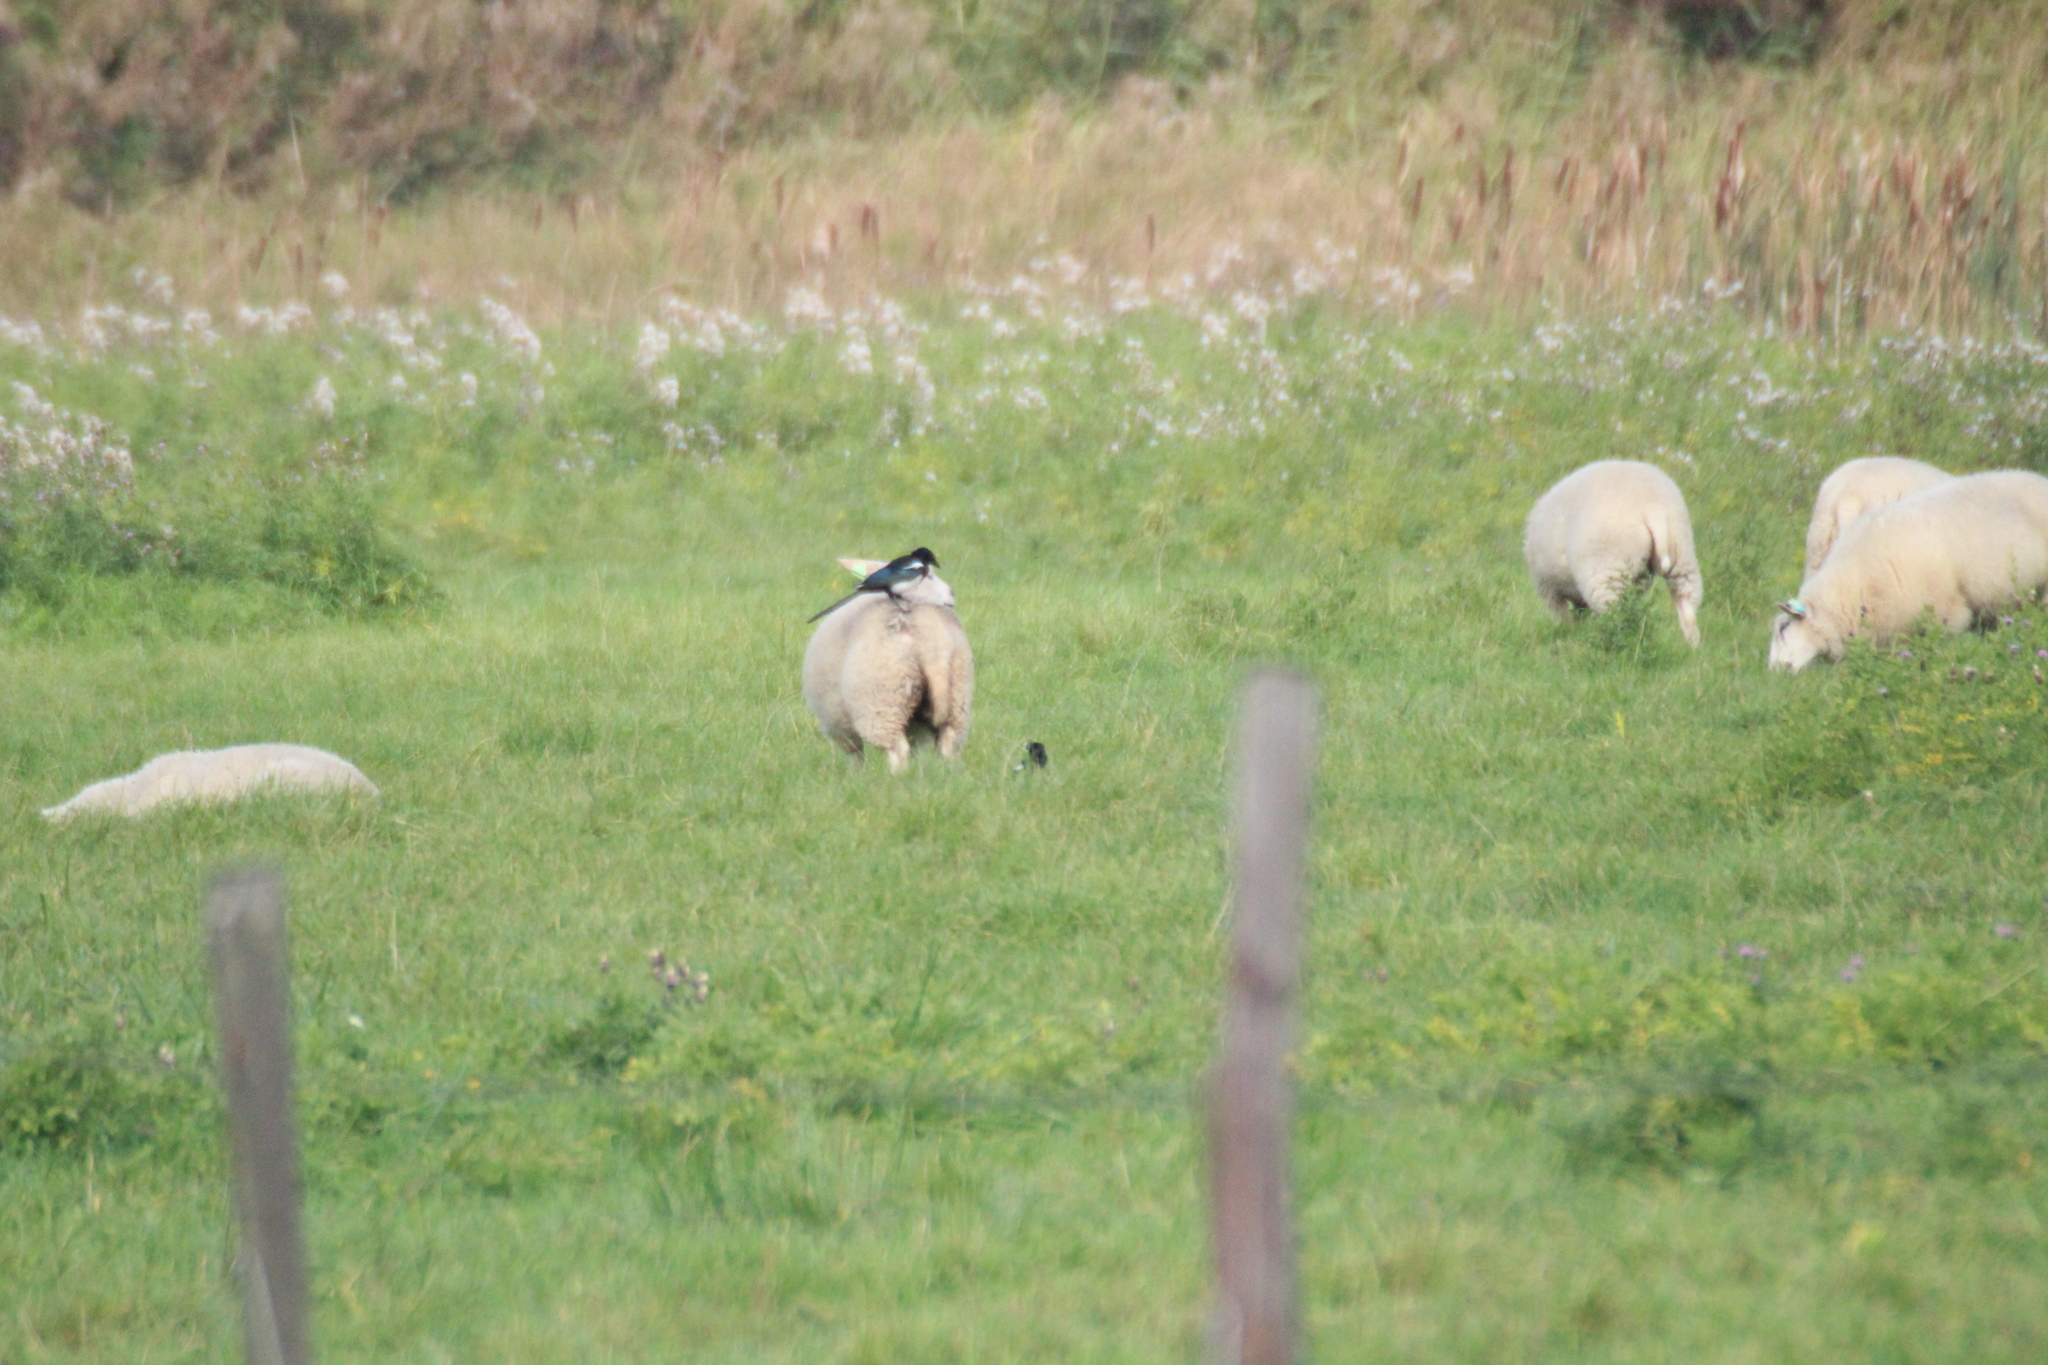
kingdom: Animalia
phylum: Chordata
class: Aves
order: Passeriformes
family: Corvidae
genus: Pica
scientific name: Pica pica
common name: Eurasian magpie
